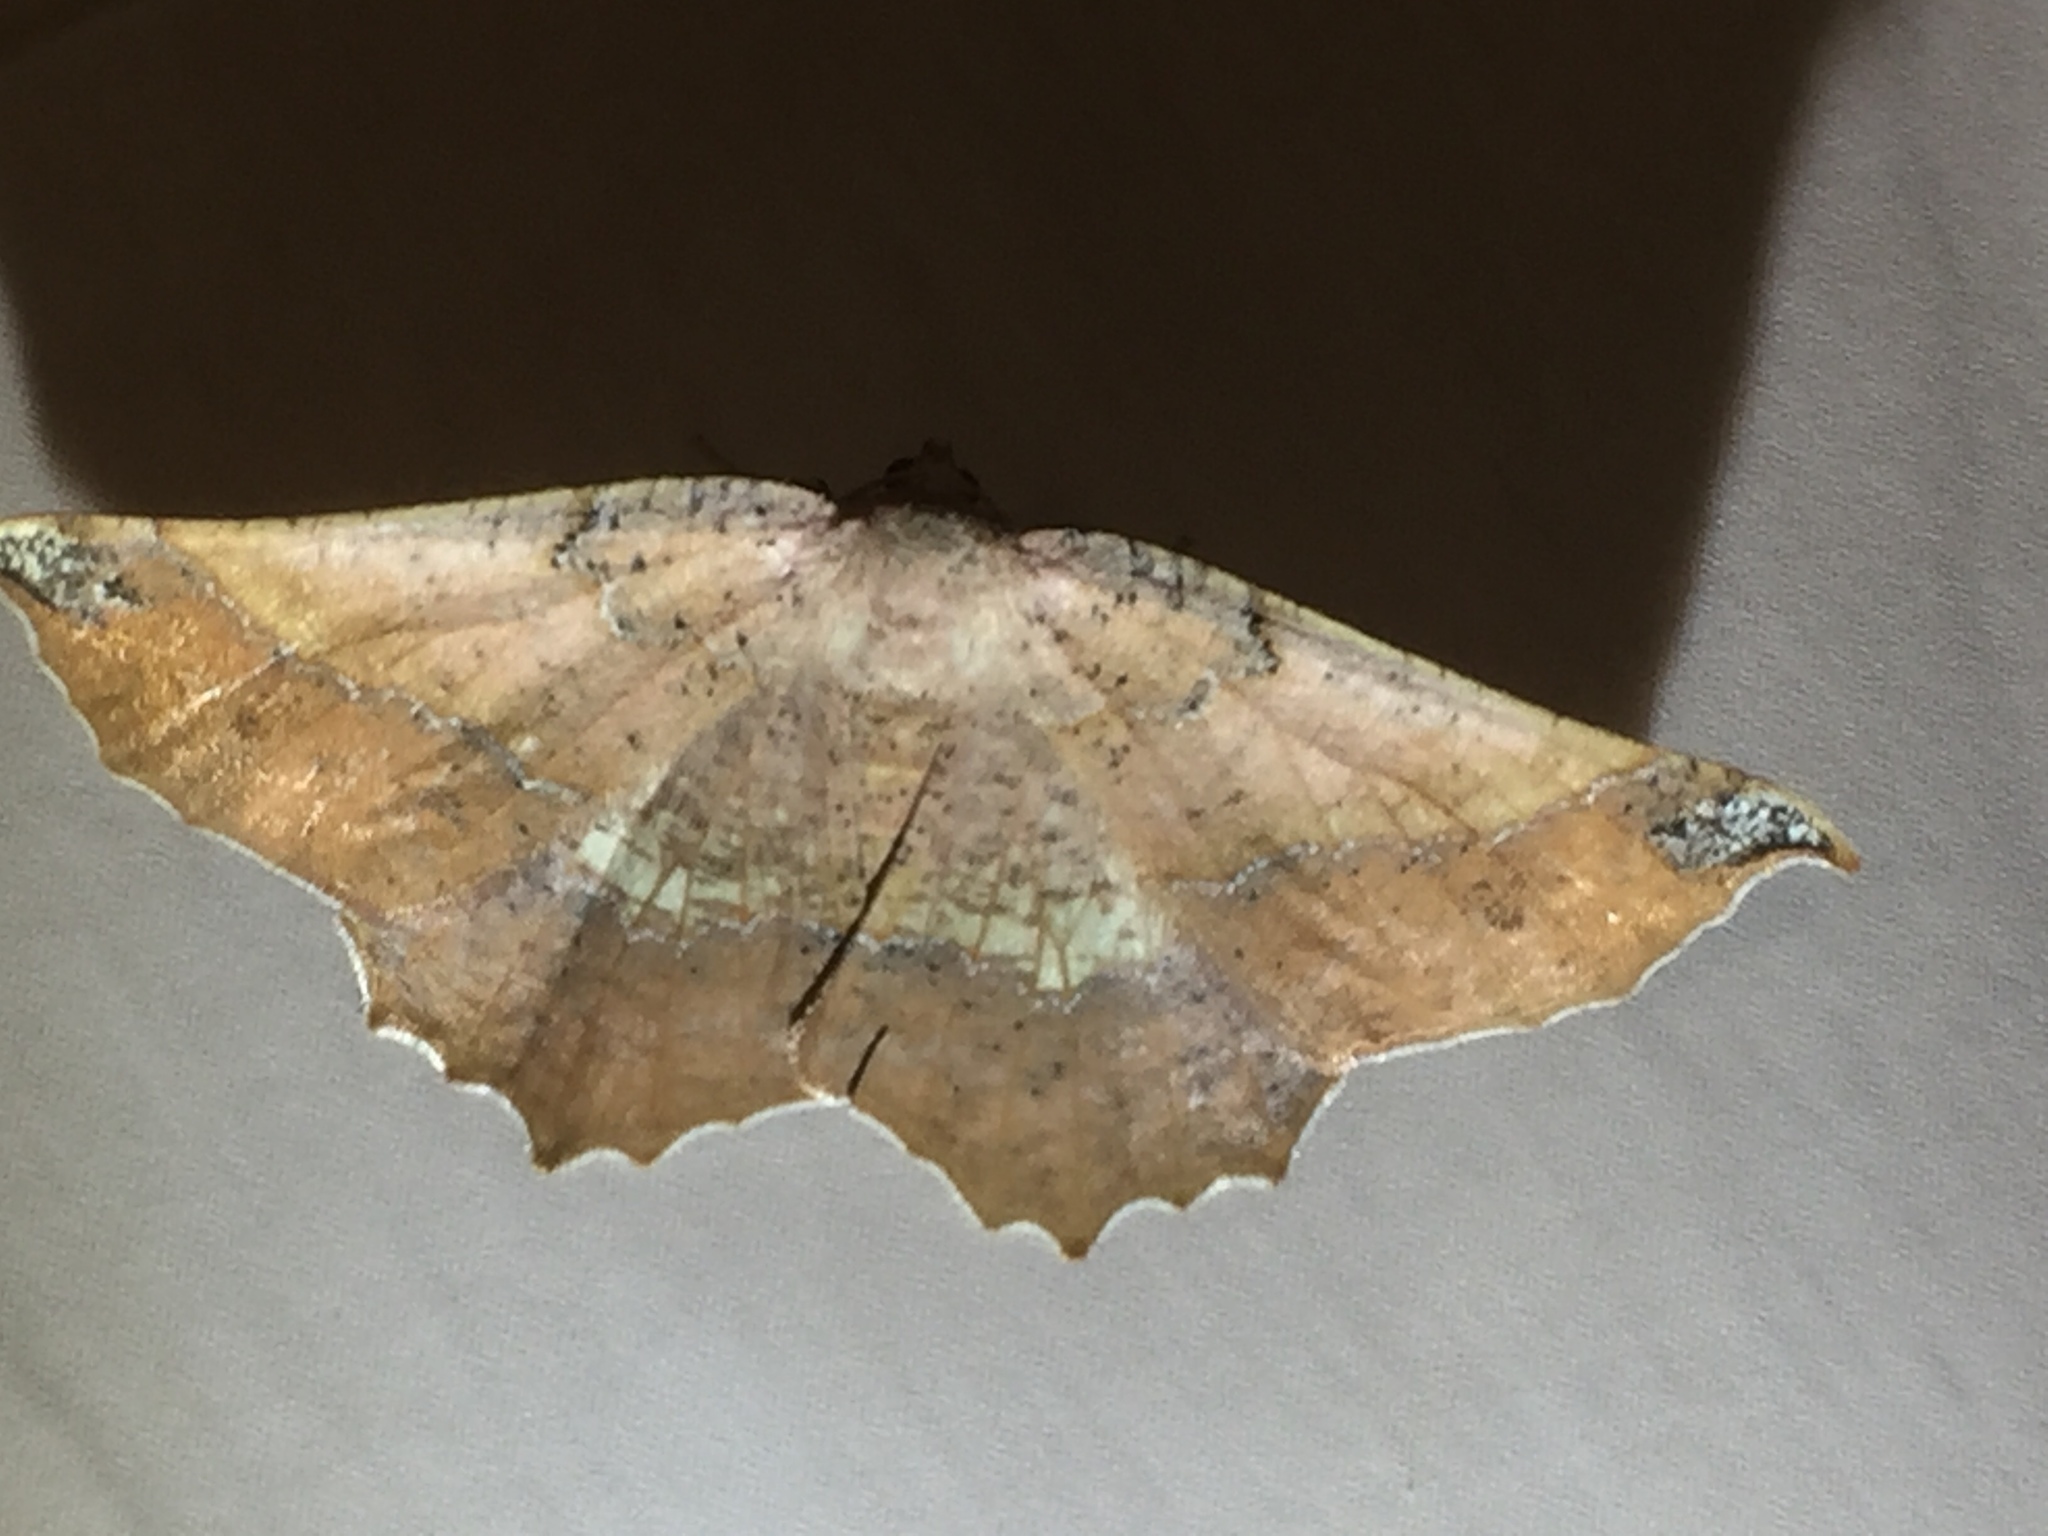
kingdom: Animalia
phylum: Arthropoda
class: Insecta
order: Lepidoptera
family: Geometridae
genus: Drepanogynis
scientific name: Drepanogynis mixtaria
